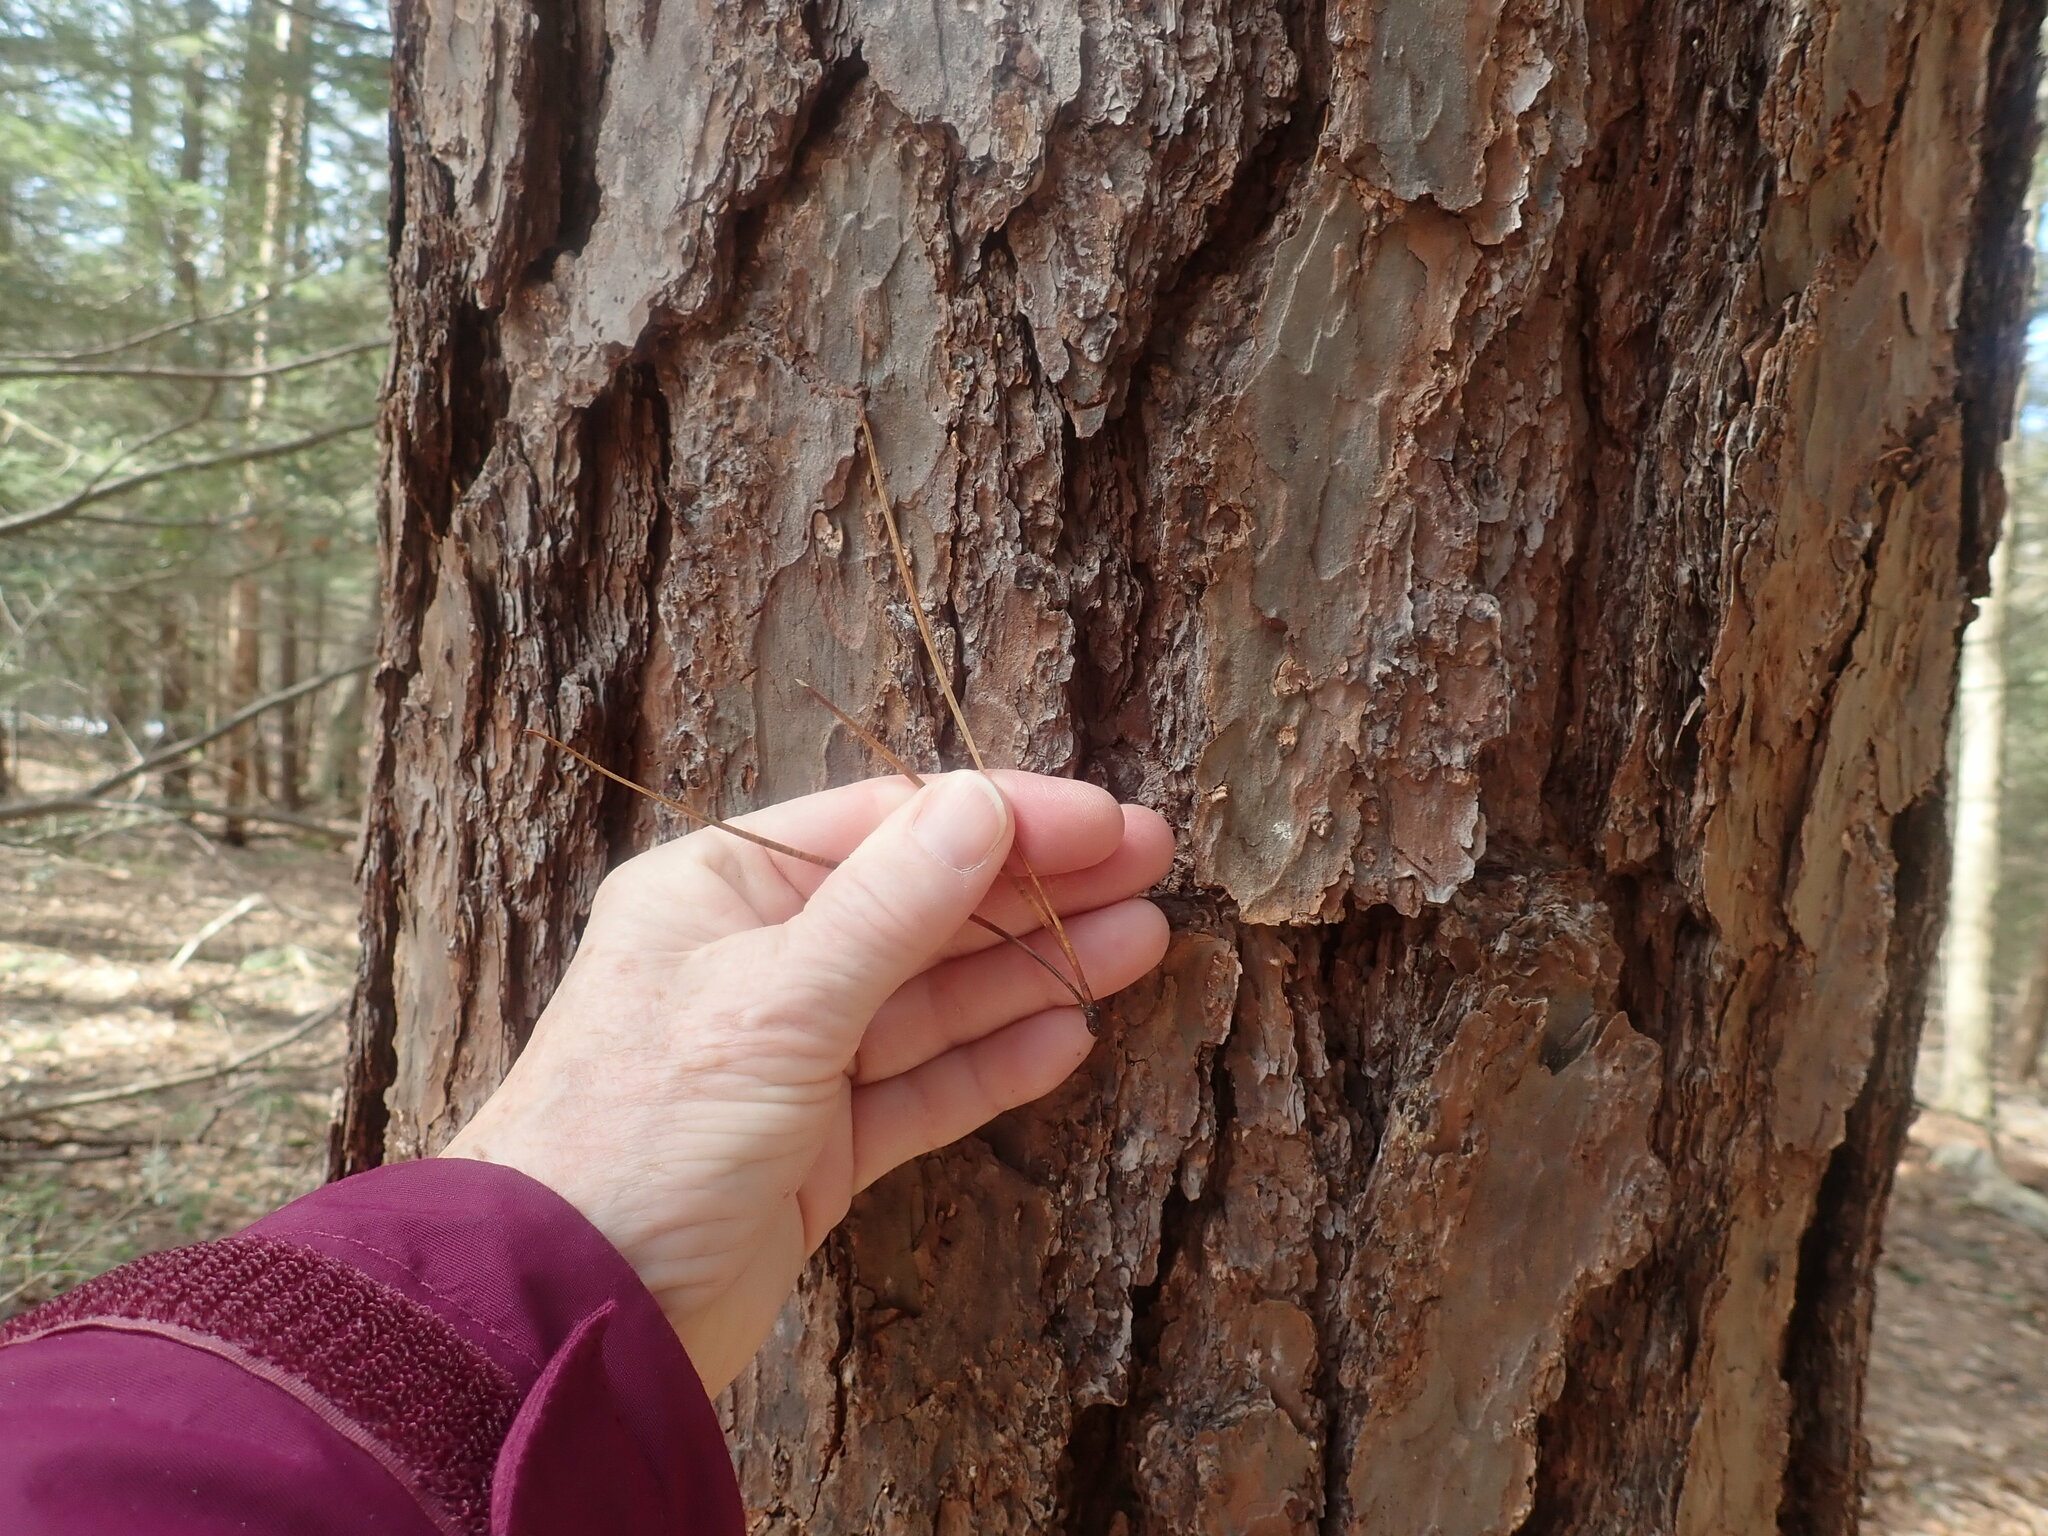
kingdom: Plantae
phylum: Tracheophyta
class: Pinopsida
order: Pinales
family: Pinaceae
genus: Pinus
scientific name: Pinus rigida
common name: Pitch pine
